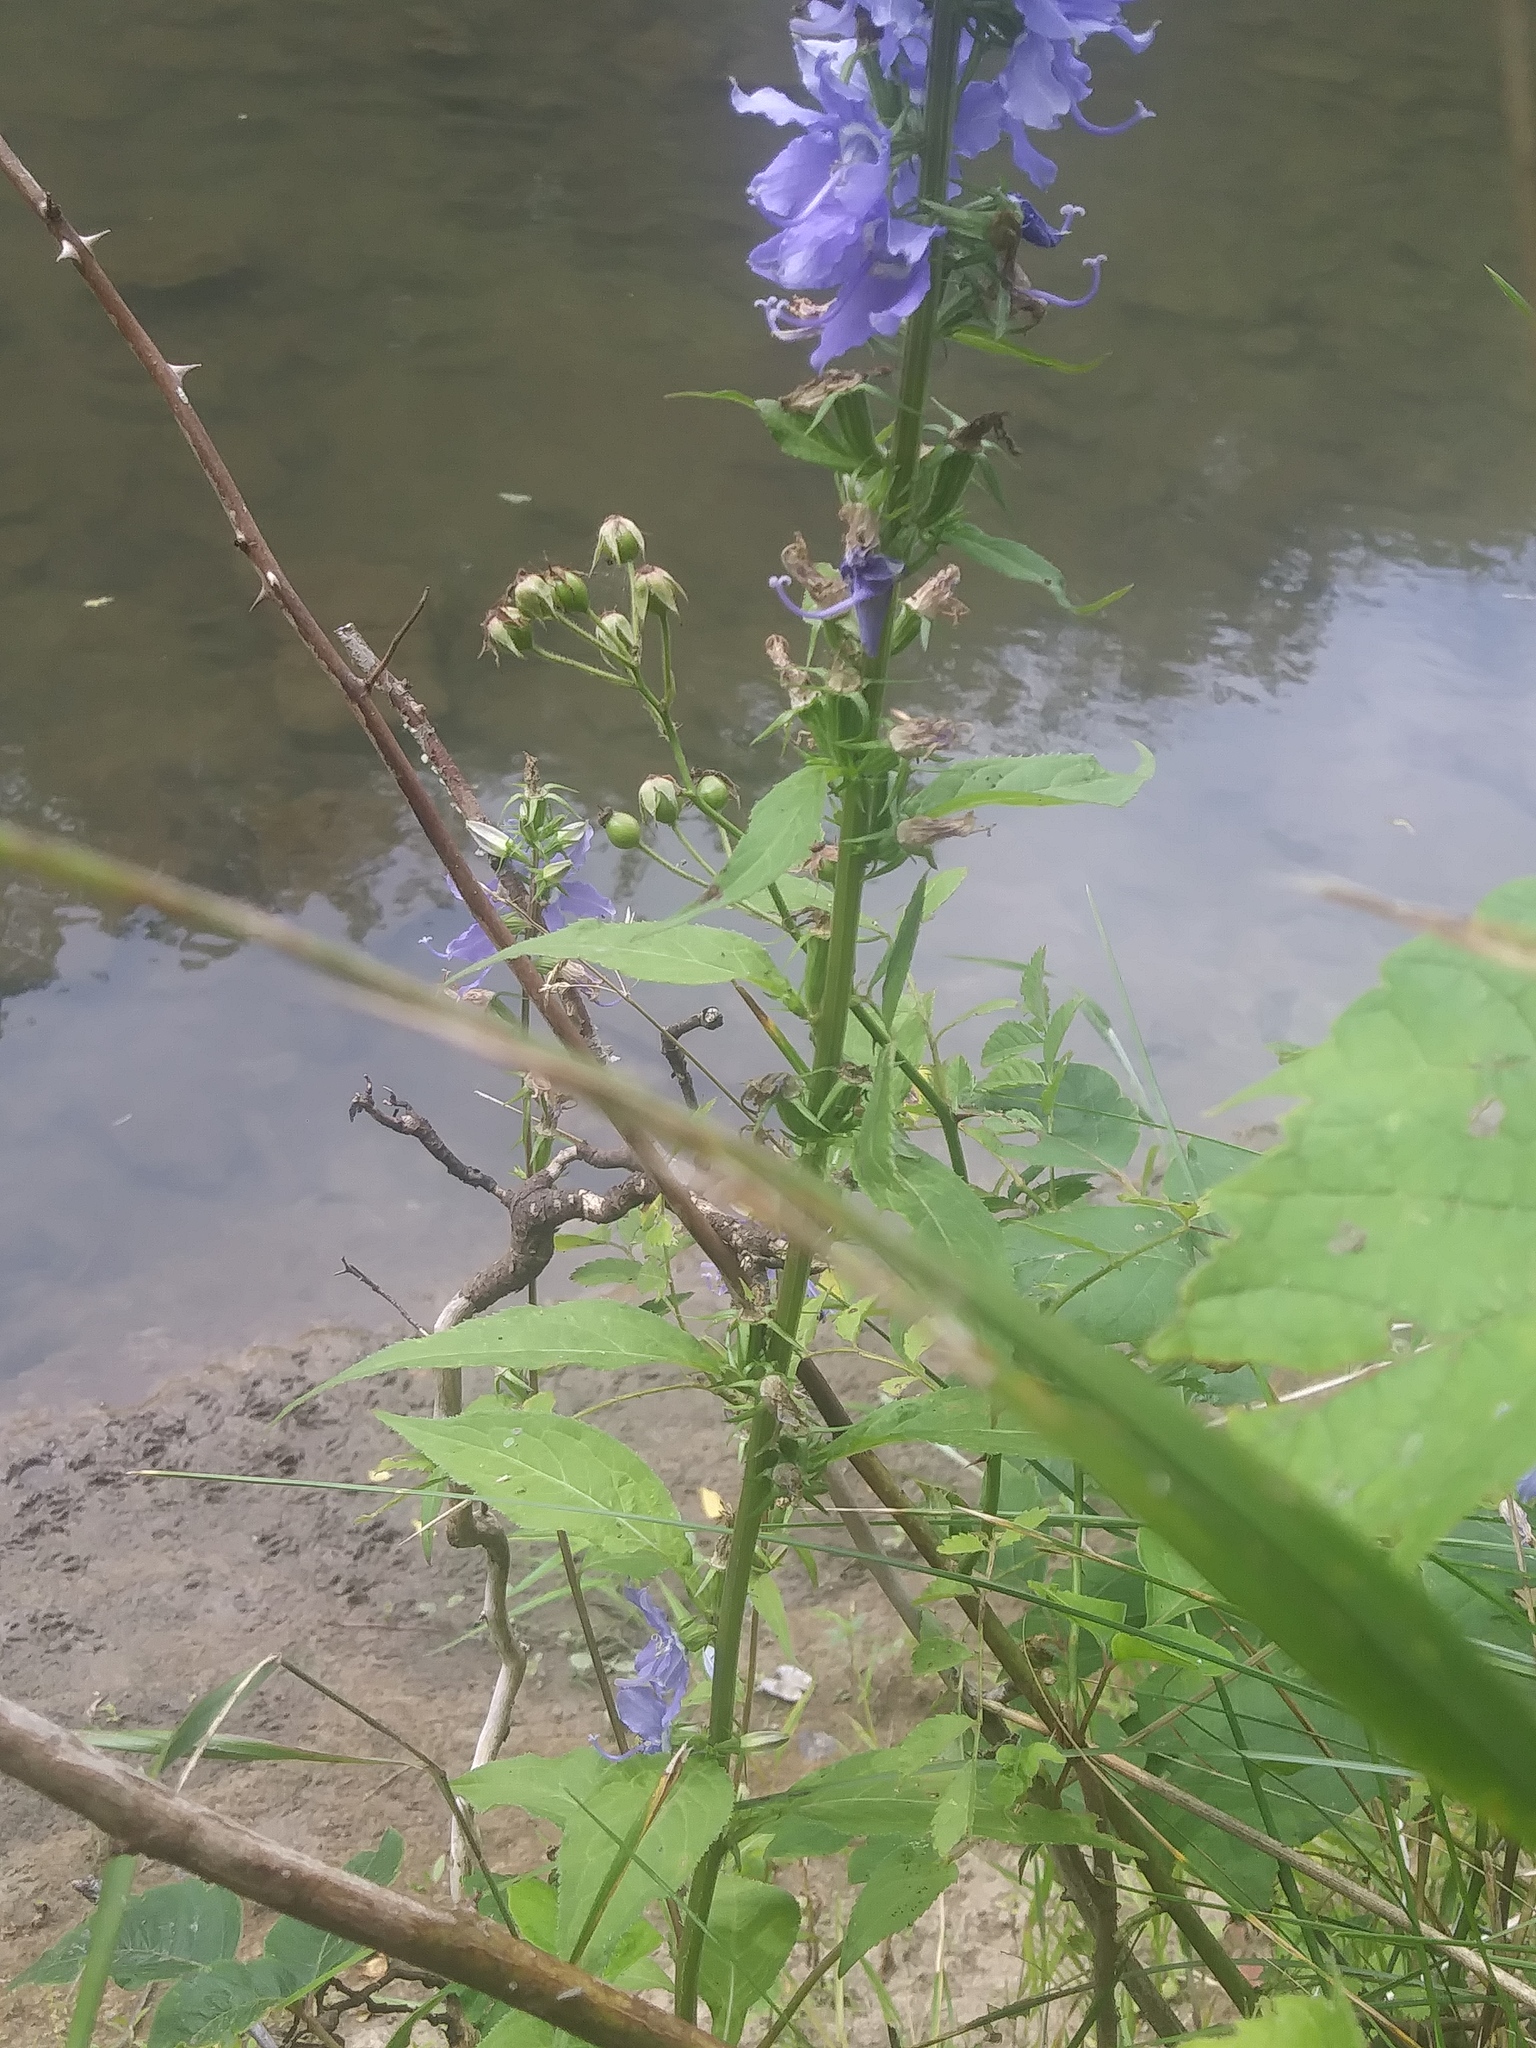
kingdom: Plantae
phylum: Tracheophyta
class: Magnoliopsida
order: Asterales
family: Campanulaceae
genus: Campanulastrum
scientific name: Campanulastrum americanum
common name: American bellflower
